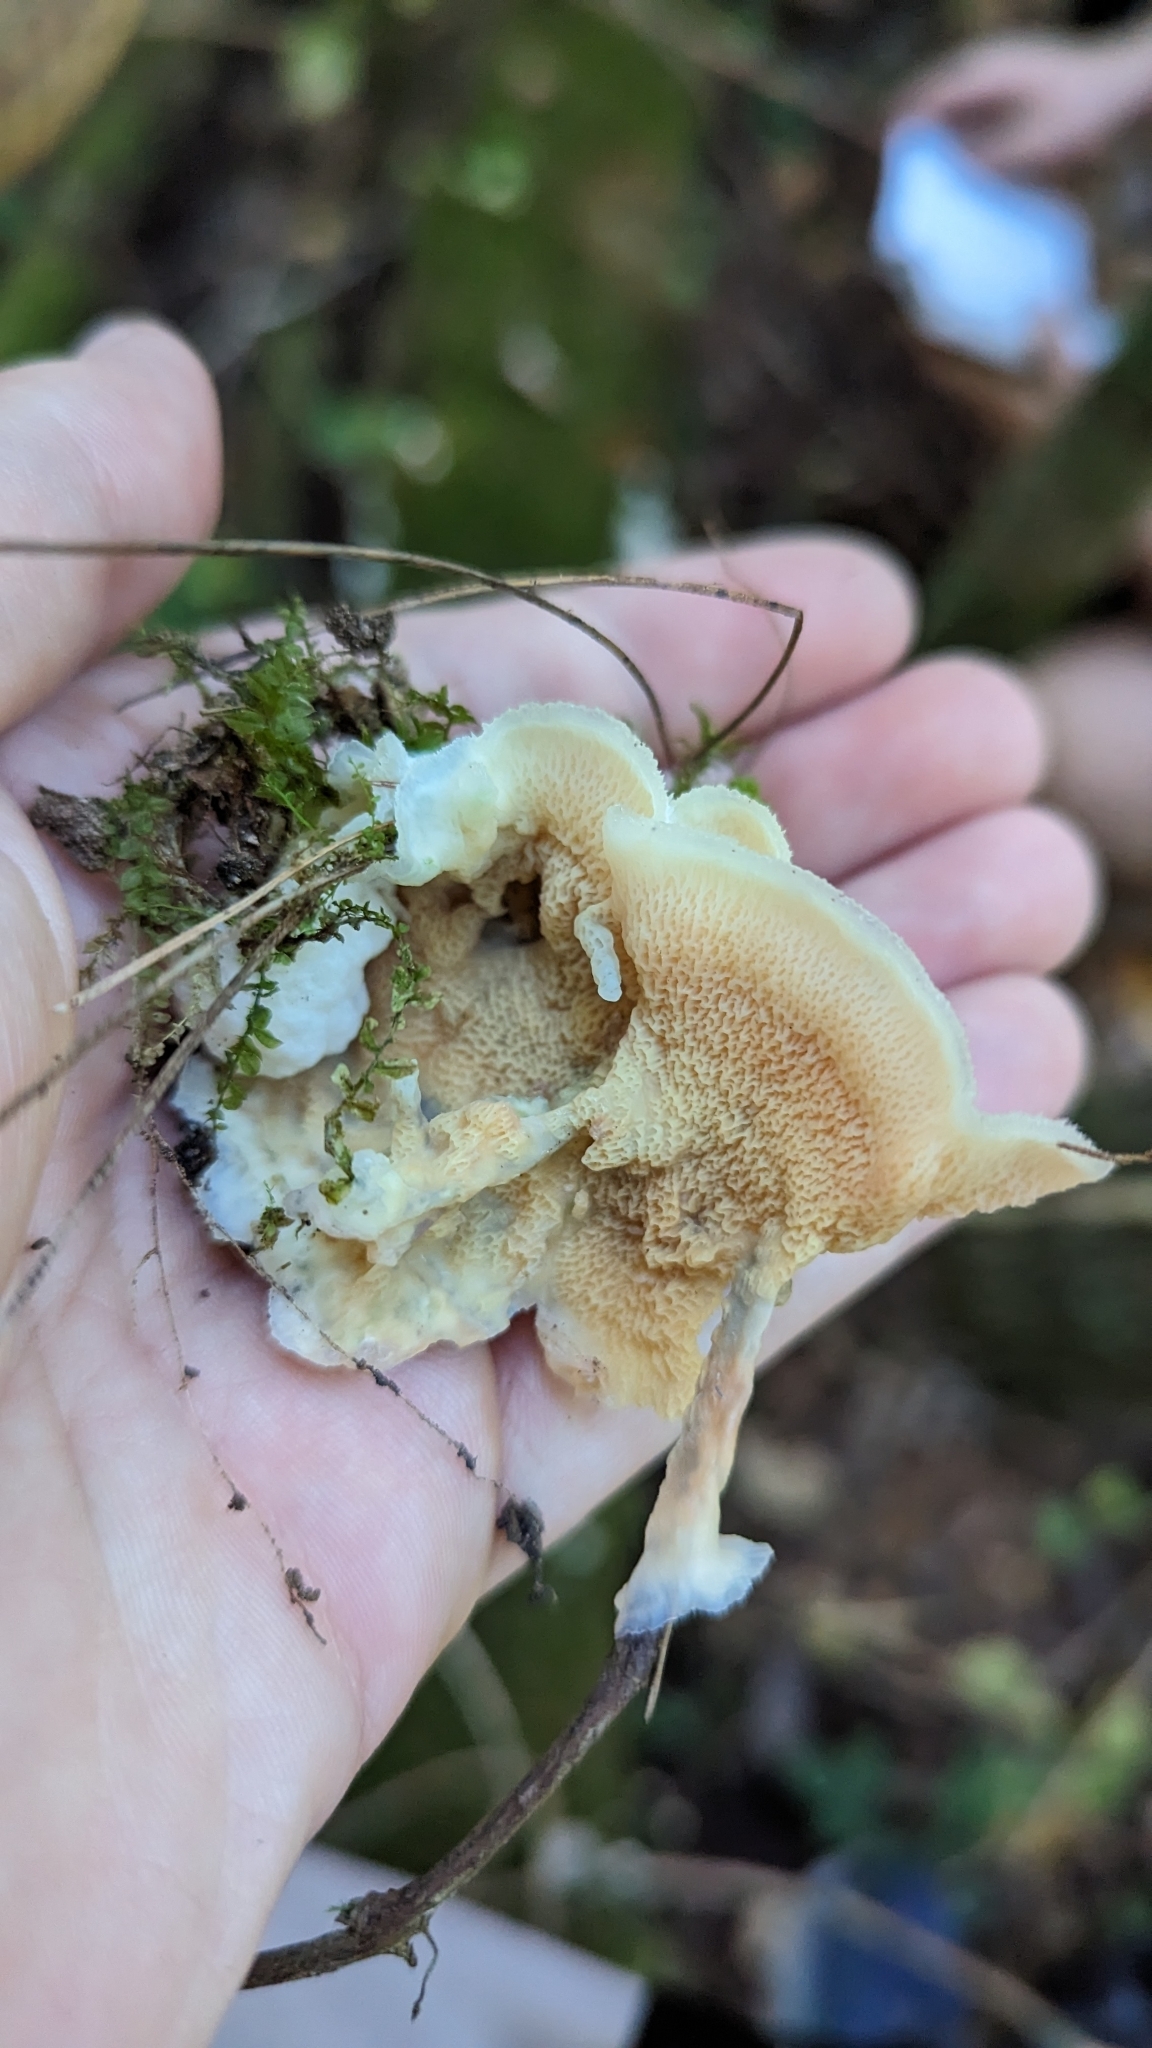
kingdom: Fungi
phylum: Basidiomycota
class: Agaricomycetes
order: Polyporales
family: Meruliaceae
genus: Phlebia
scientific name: Phlebia tremellosa
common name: Jelly rot
